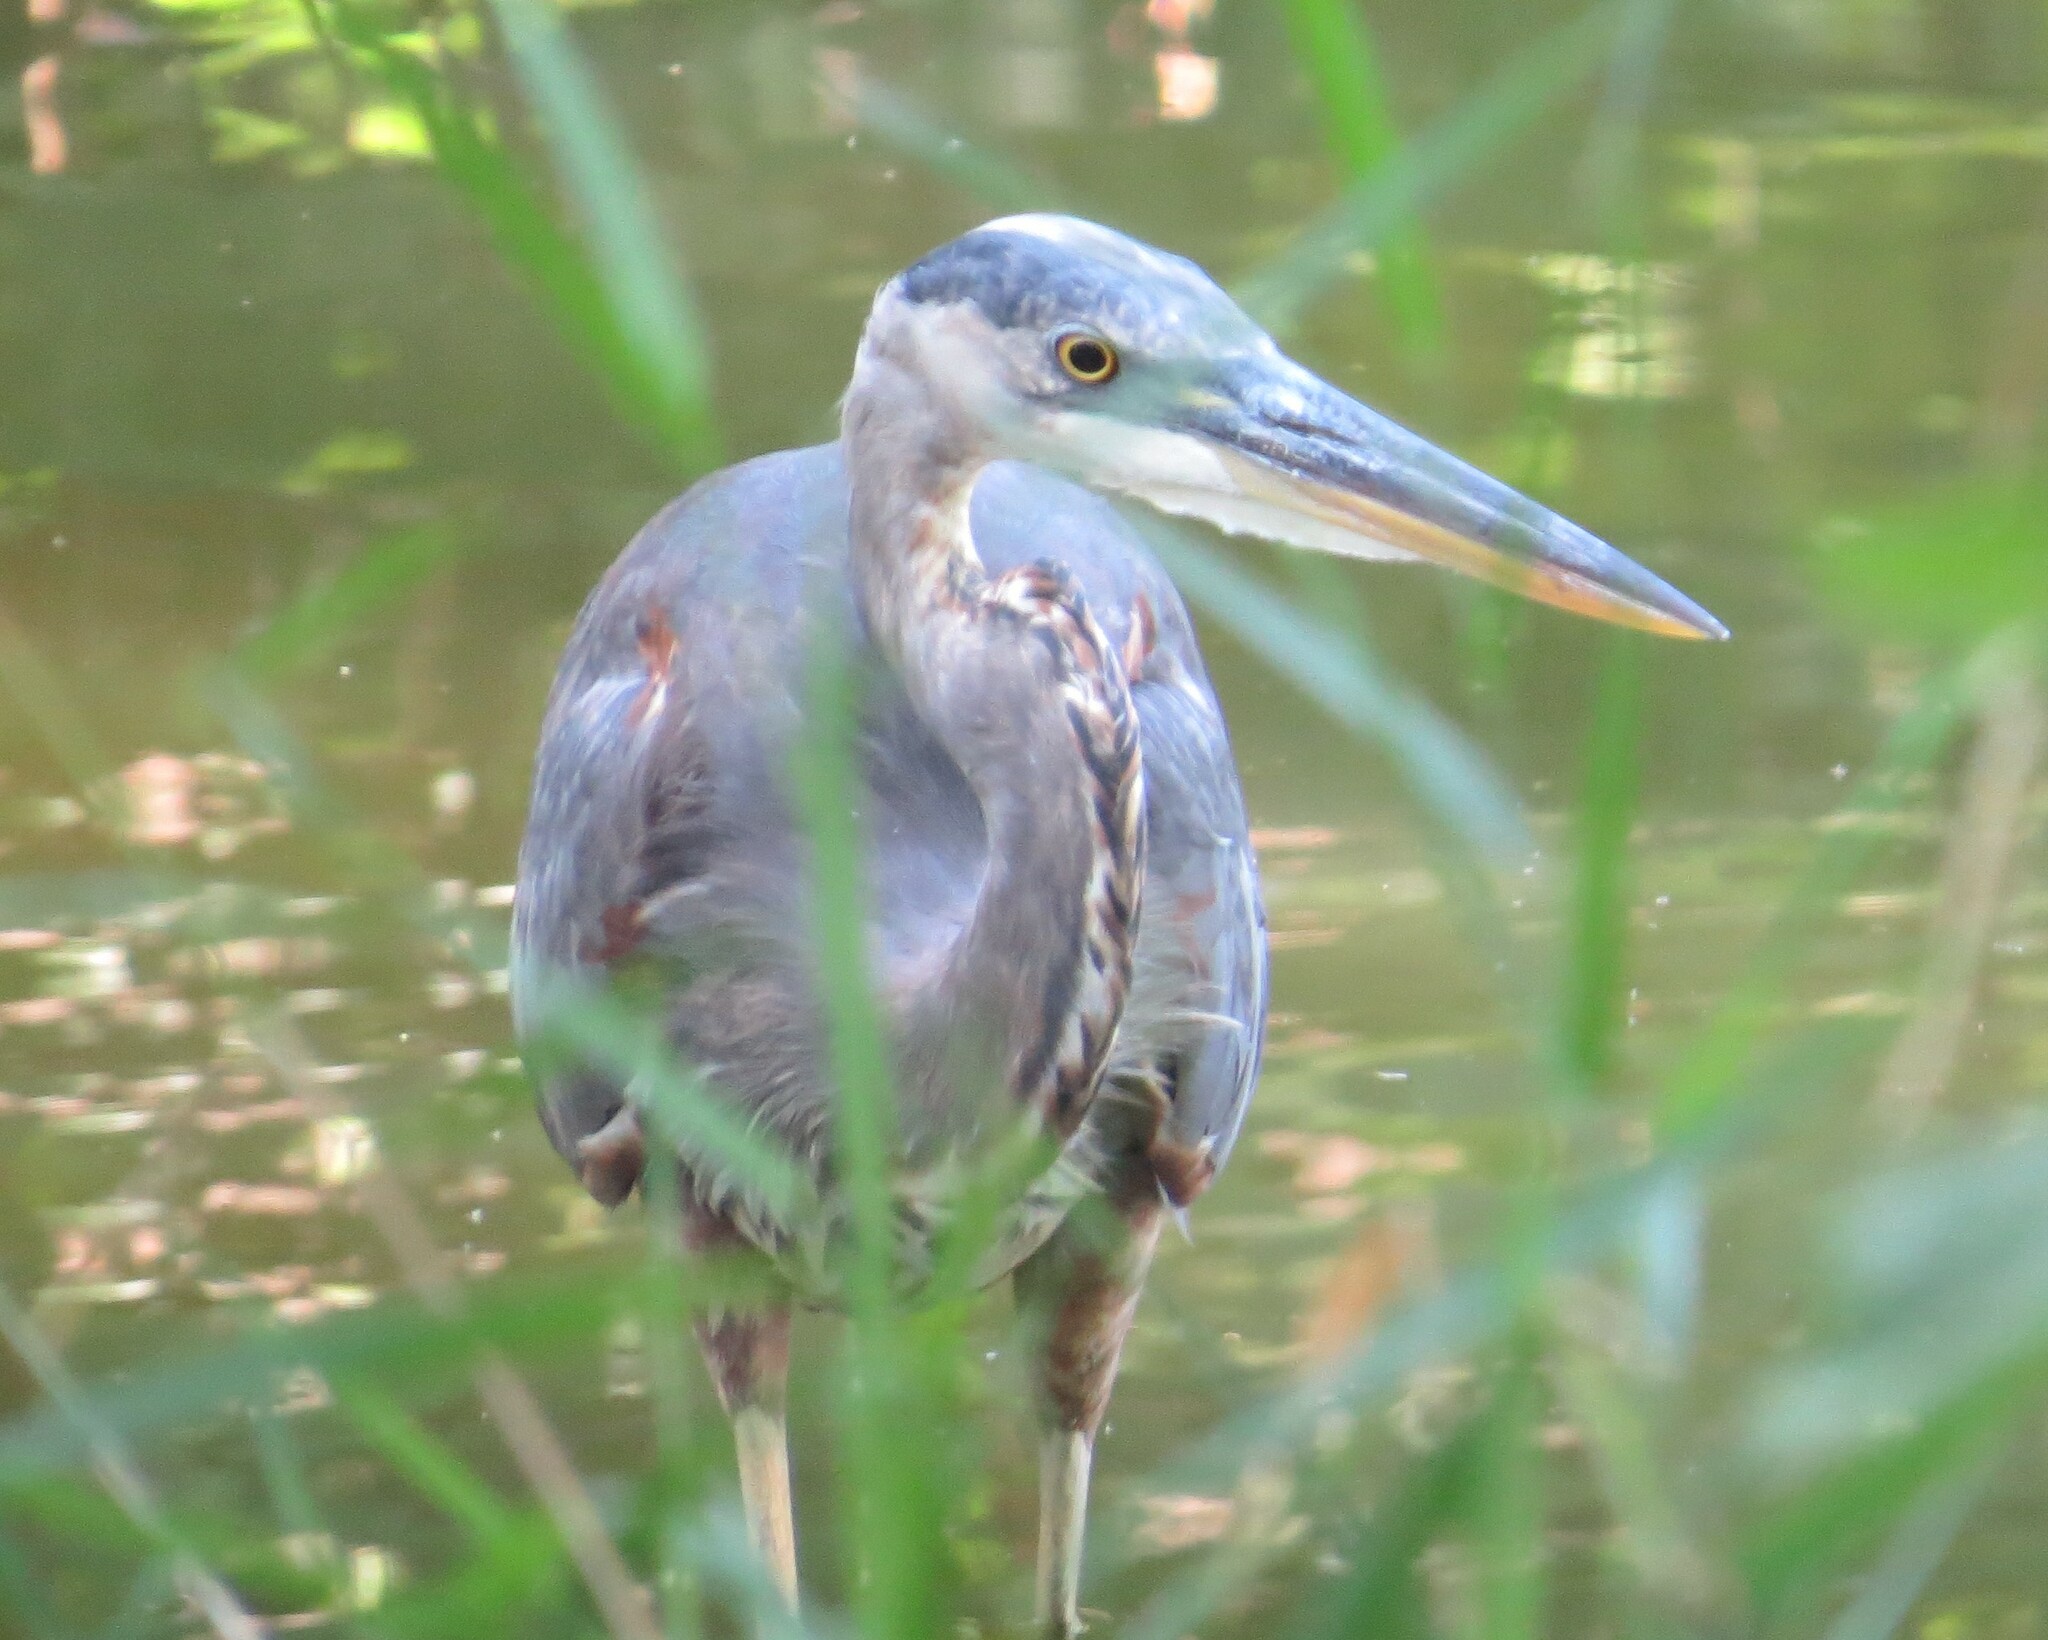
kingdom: Animalia
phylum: Chordata
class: Aves
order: Pelecaniformes
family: Ardeidae
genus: Ardea
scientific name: Ardea herodias
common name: Great blue heron
